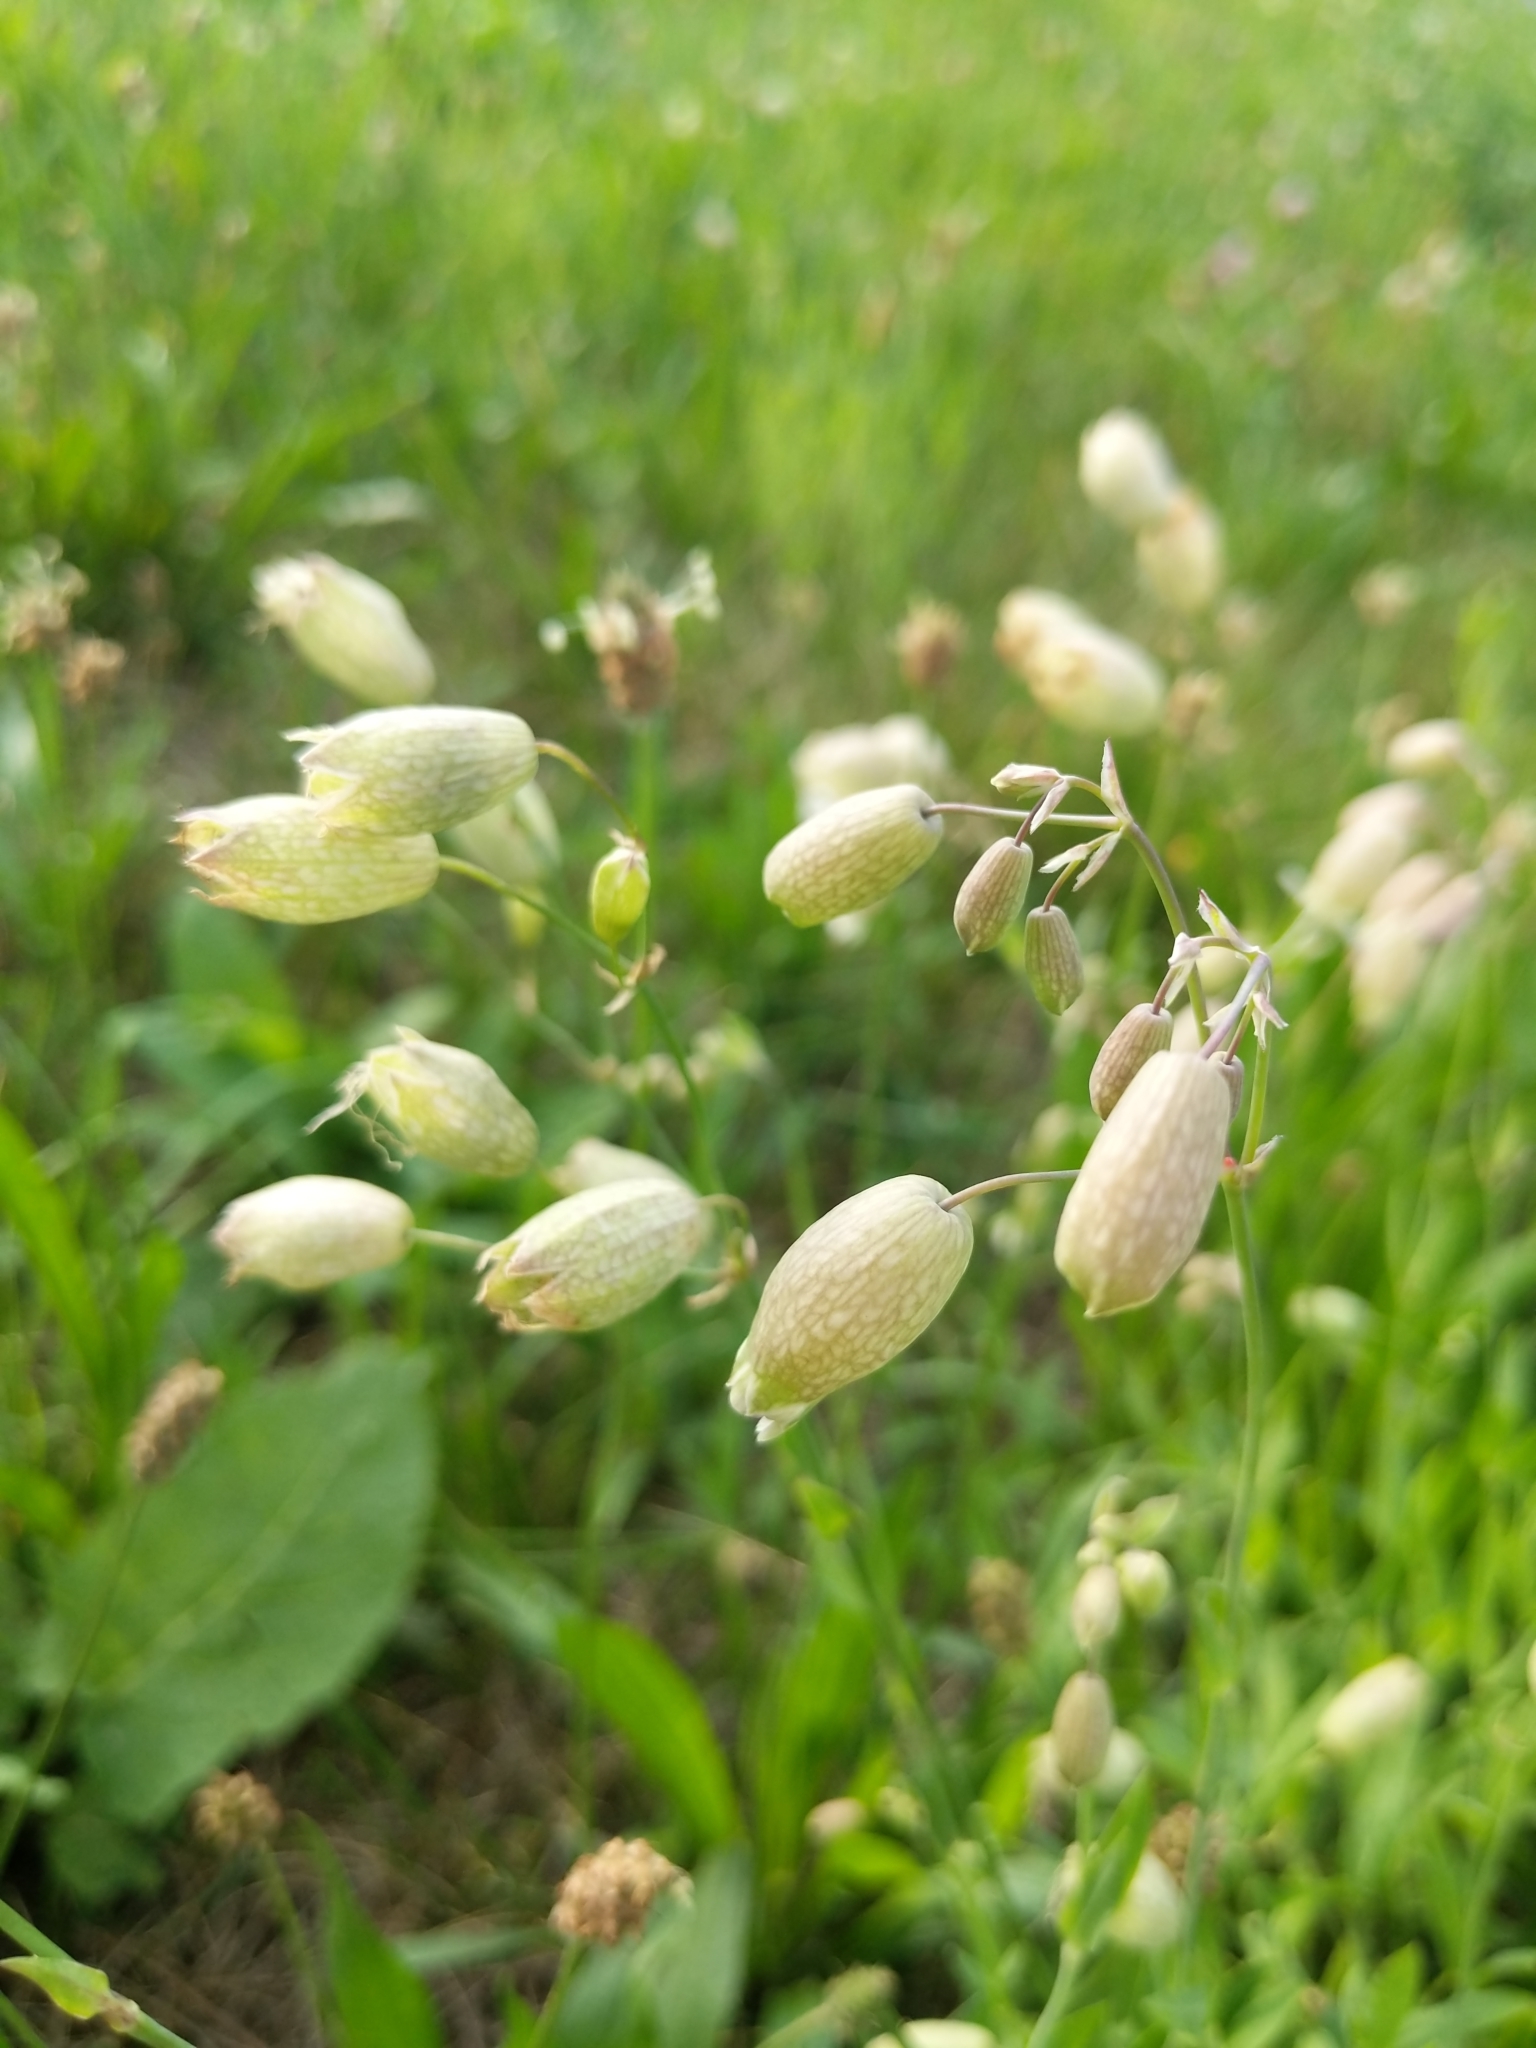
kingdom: Plantae
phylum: Tracheophyta
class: Magnoliopsida
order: Caryophyllales
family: Caryophyllaceae
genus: Silene
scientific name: Silene vulgaris
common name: Bladder campion
